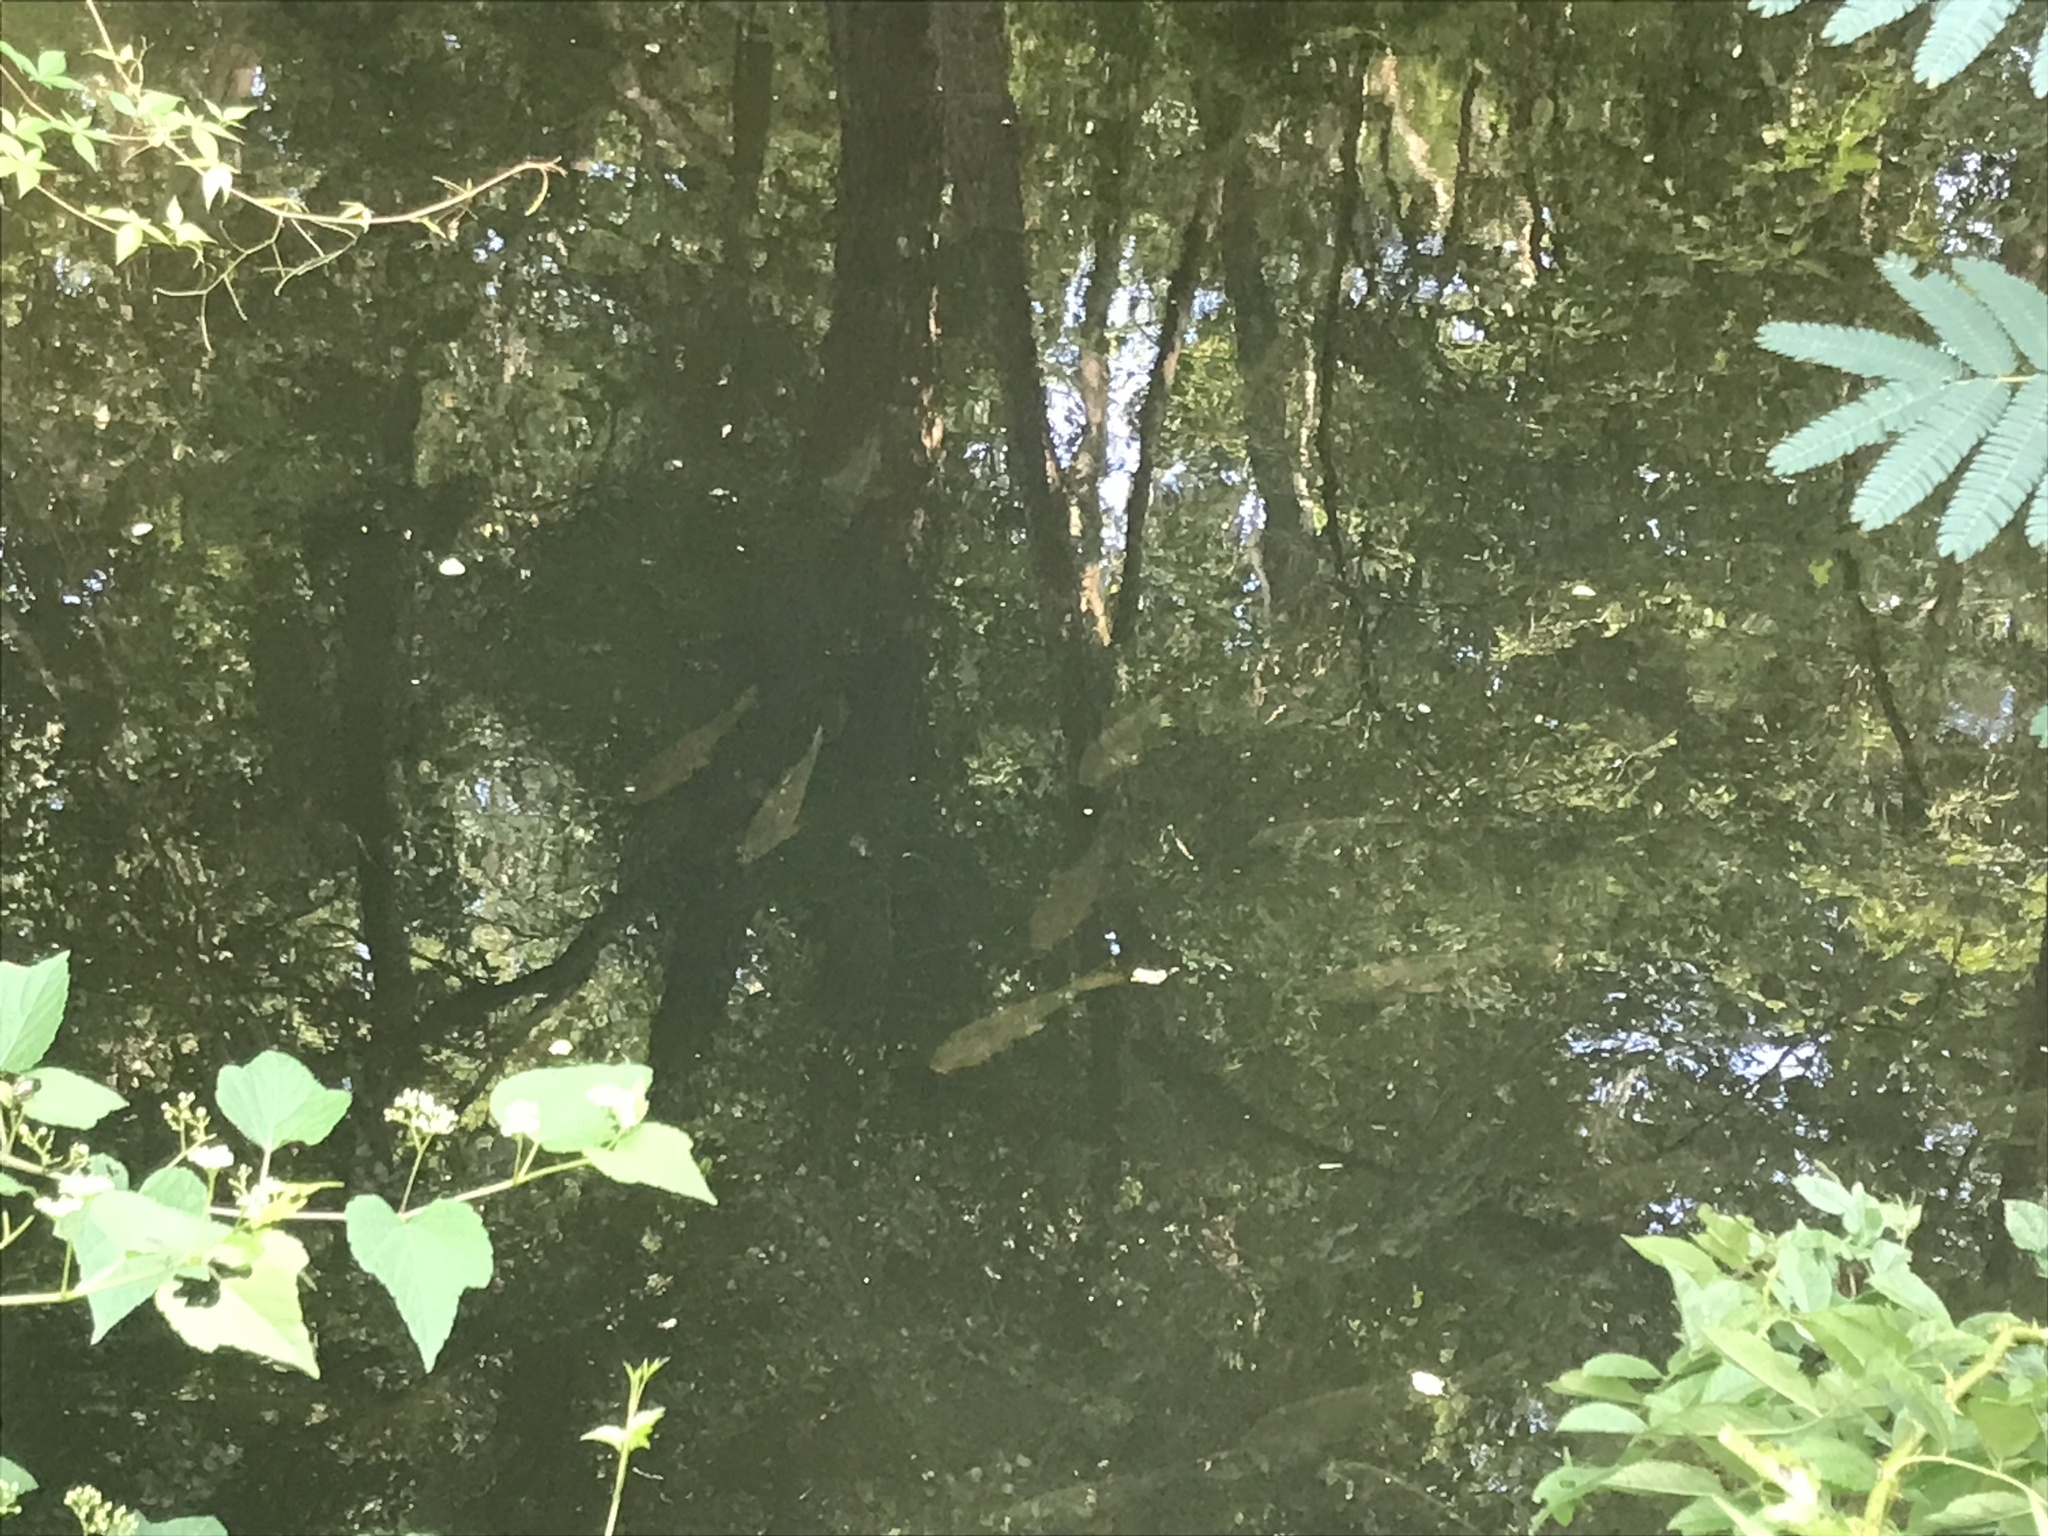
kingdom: Animalia
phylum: Chordata
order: Cypriniformes
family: Cyprinidae
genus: Cyprinus
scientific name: Cyprinus carpio
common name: Common carp
